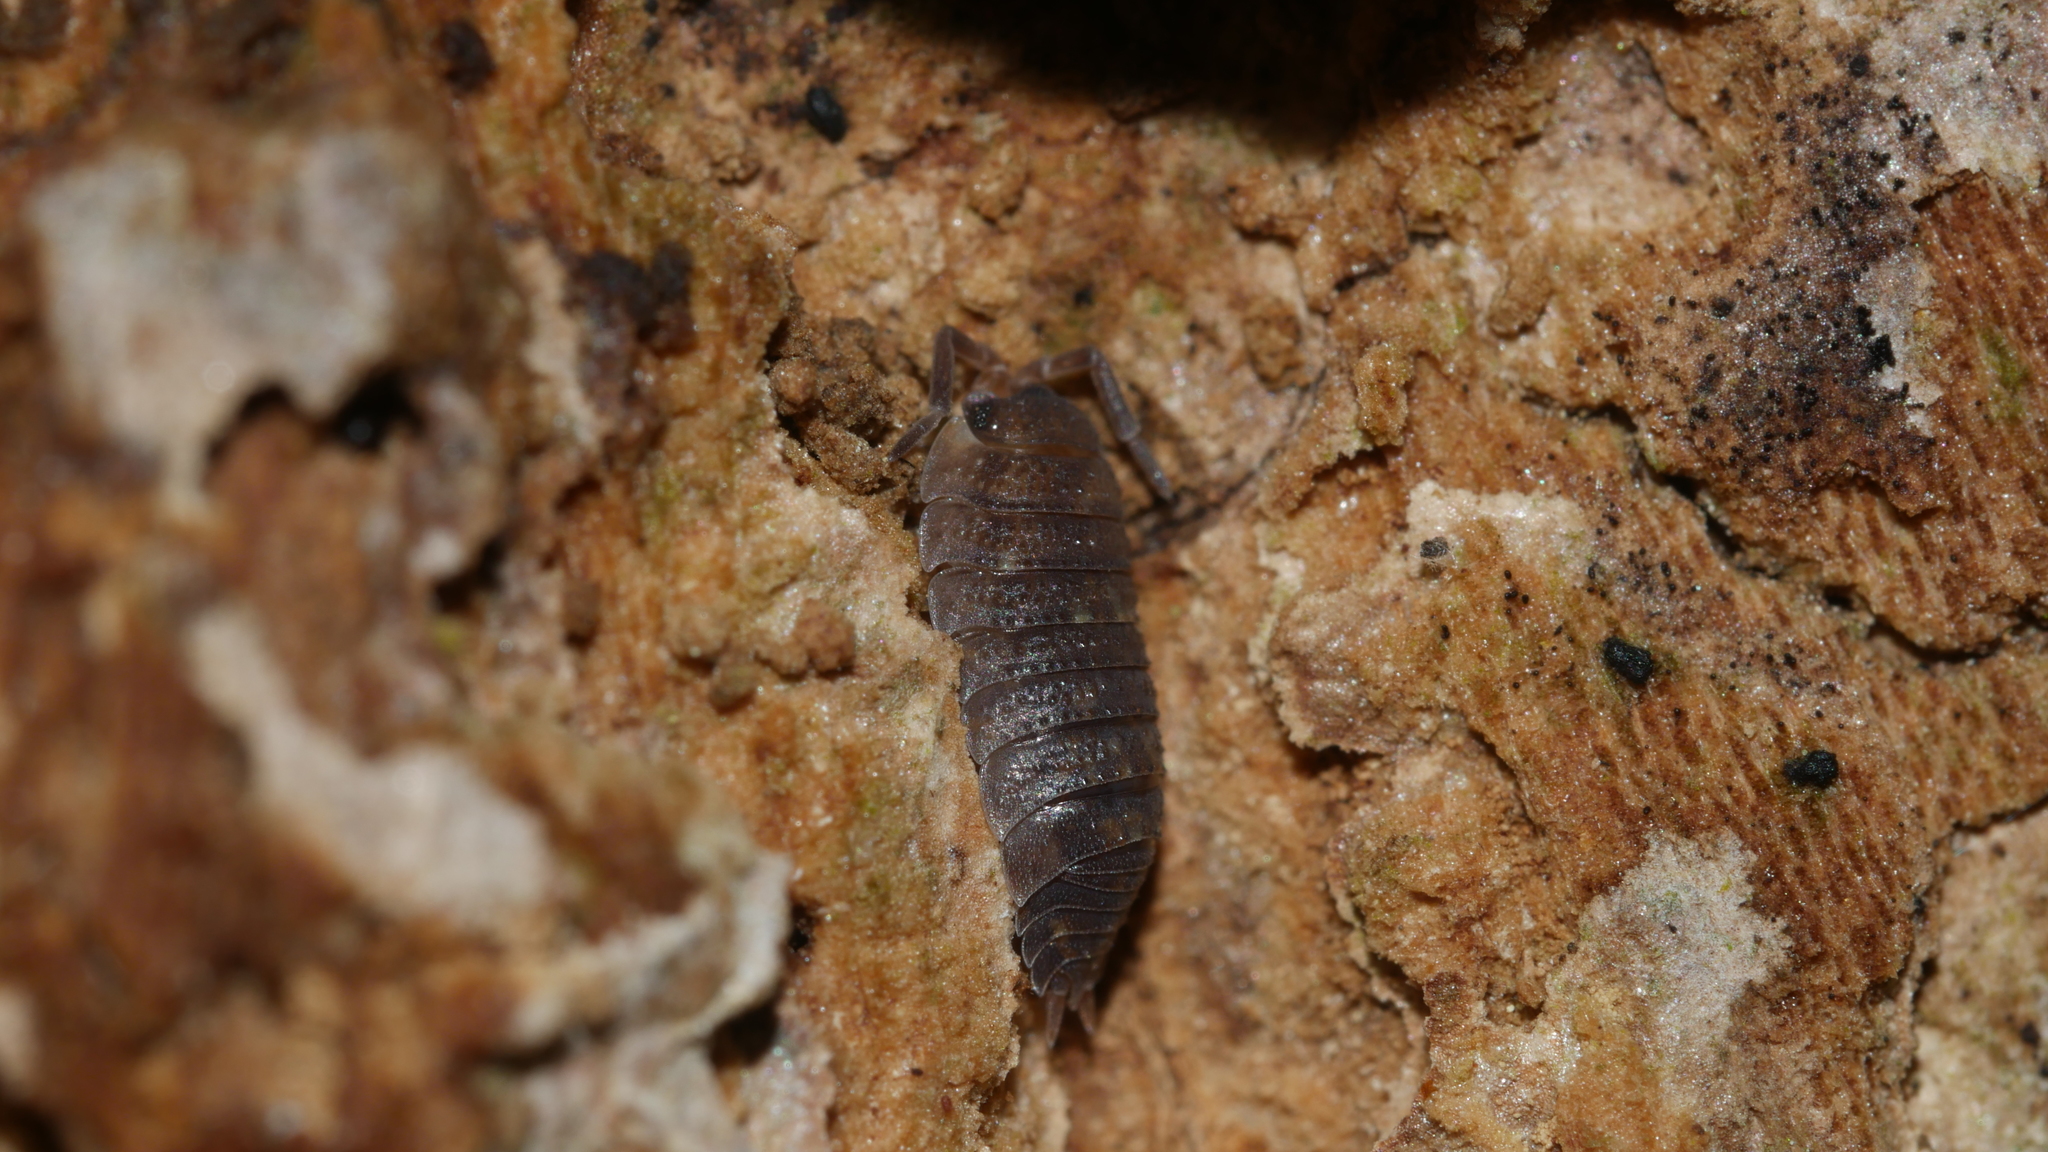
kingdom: Animalia
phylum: Arthropoda
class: Malacostraca
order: Isopoda
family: Porcellionidae
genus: Porcellio
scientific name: Porcellio scaber
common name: Common rough woodlouse
